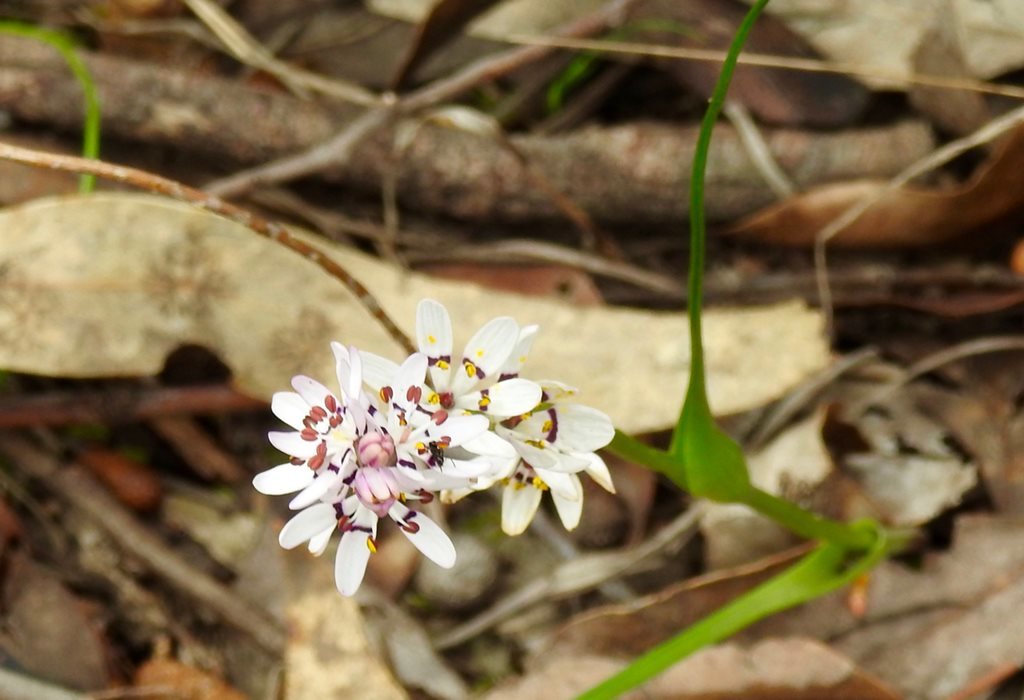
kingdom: Plantae
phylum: Tracheophyta
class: Liliopsida
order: Liliales
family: Colchicaceae
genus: Wurmbea
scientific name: Wurmbea dioica
